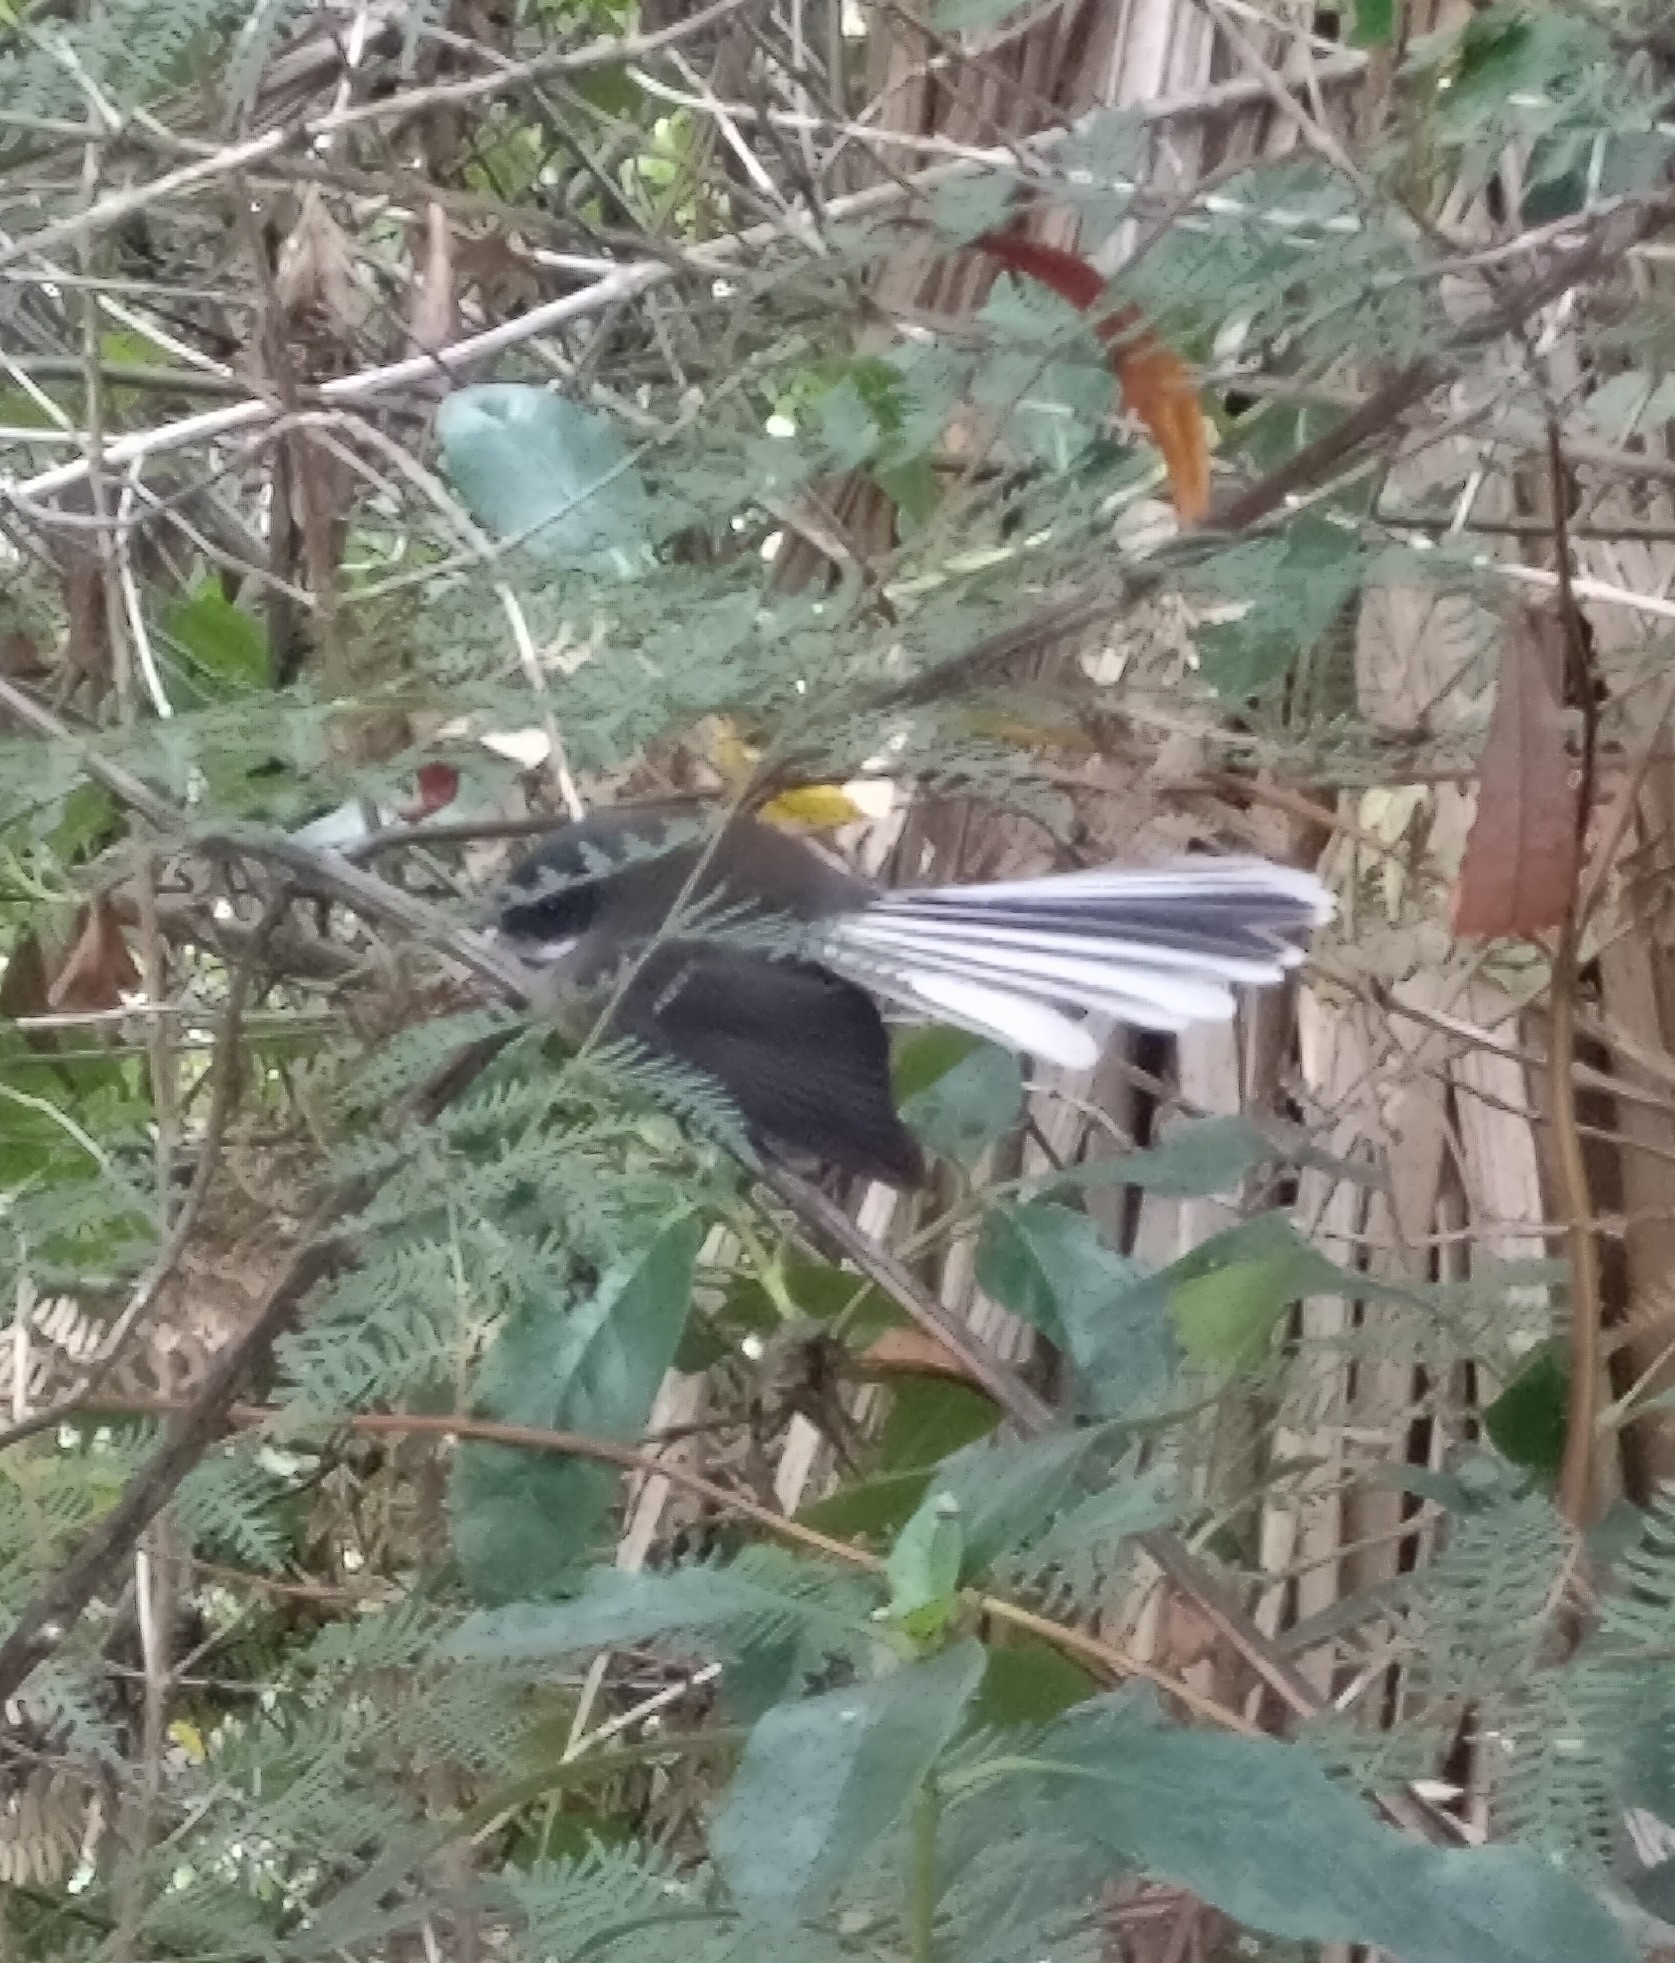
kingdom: Animalia
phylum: Chordata
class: Aves
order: Passeriformes
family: Rhipiduridae
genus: Rhipidura
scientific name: Rhipidura fuliginosa
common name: New zealand fantail
